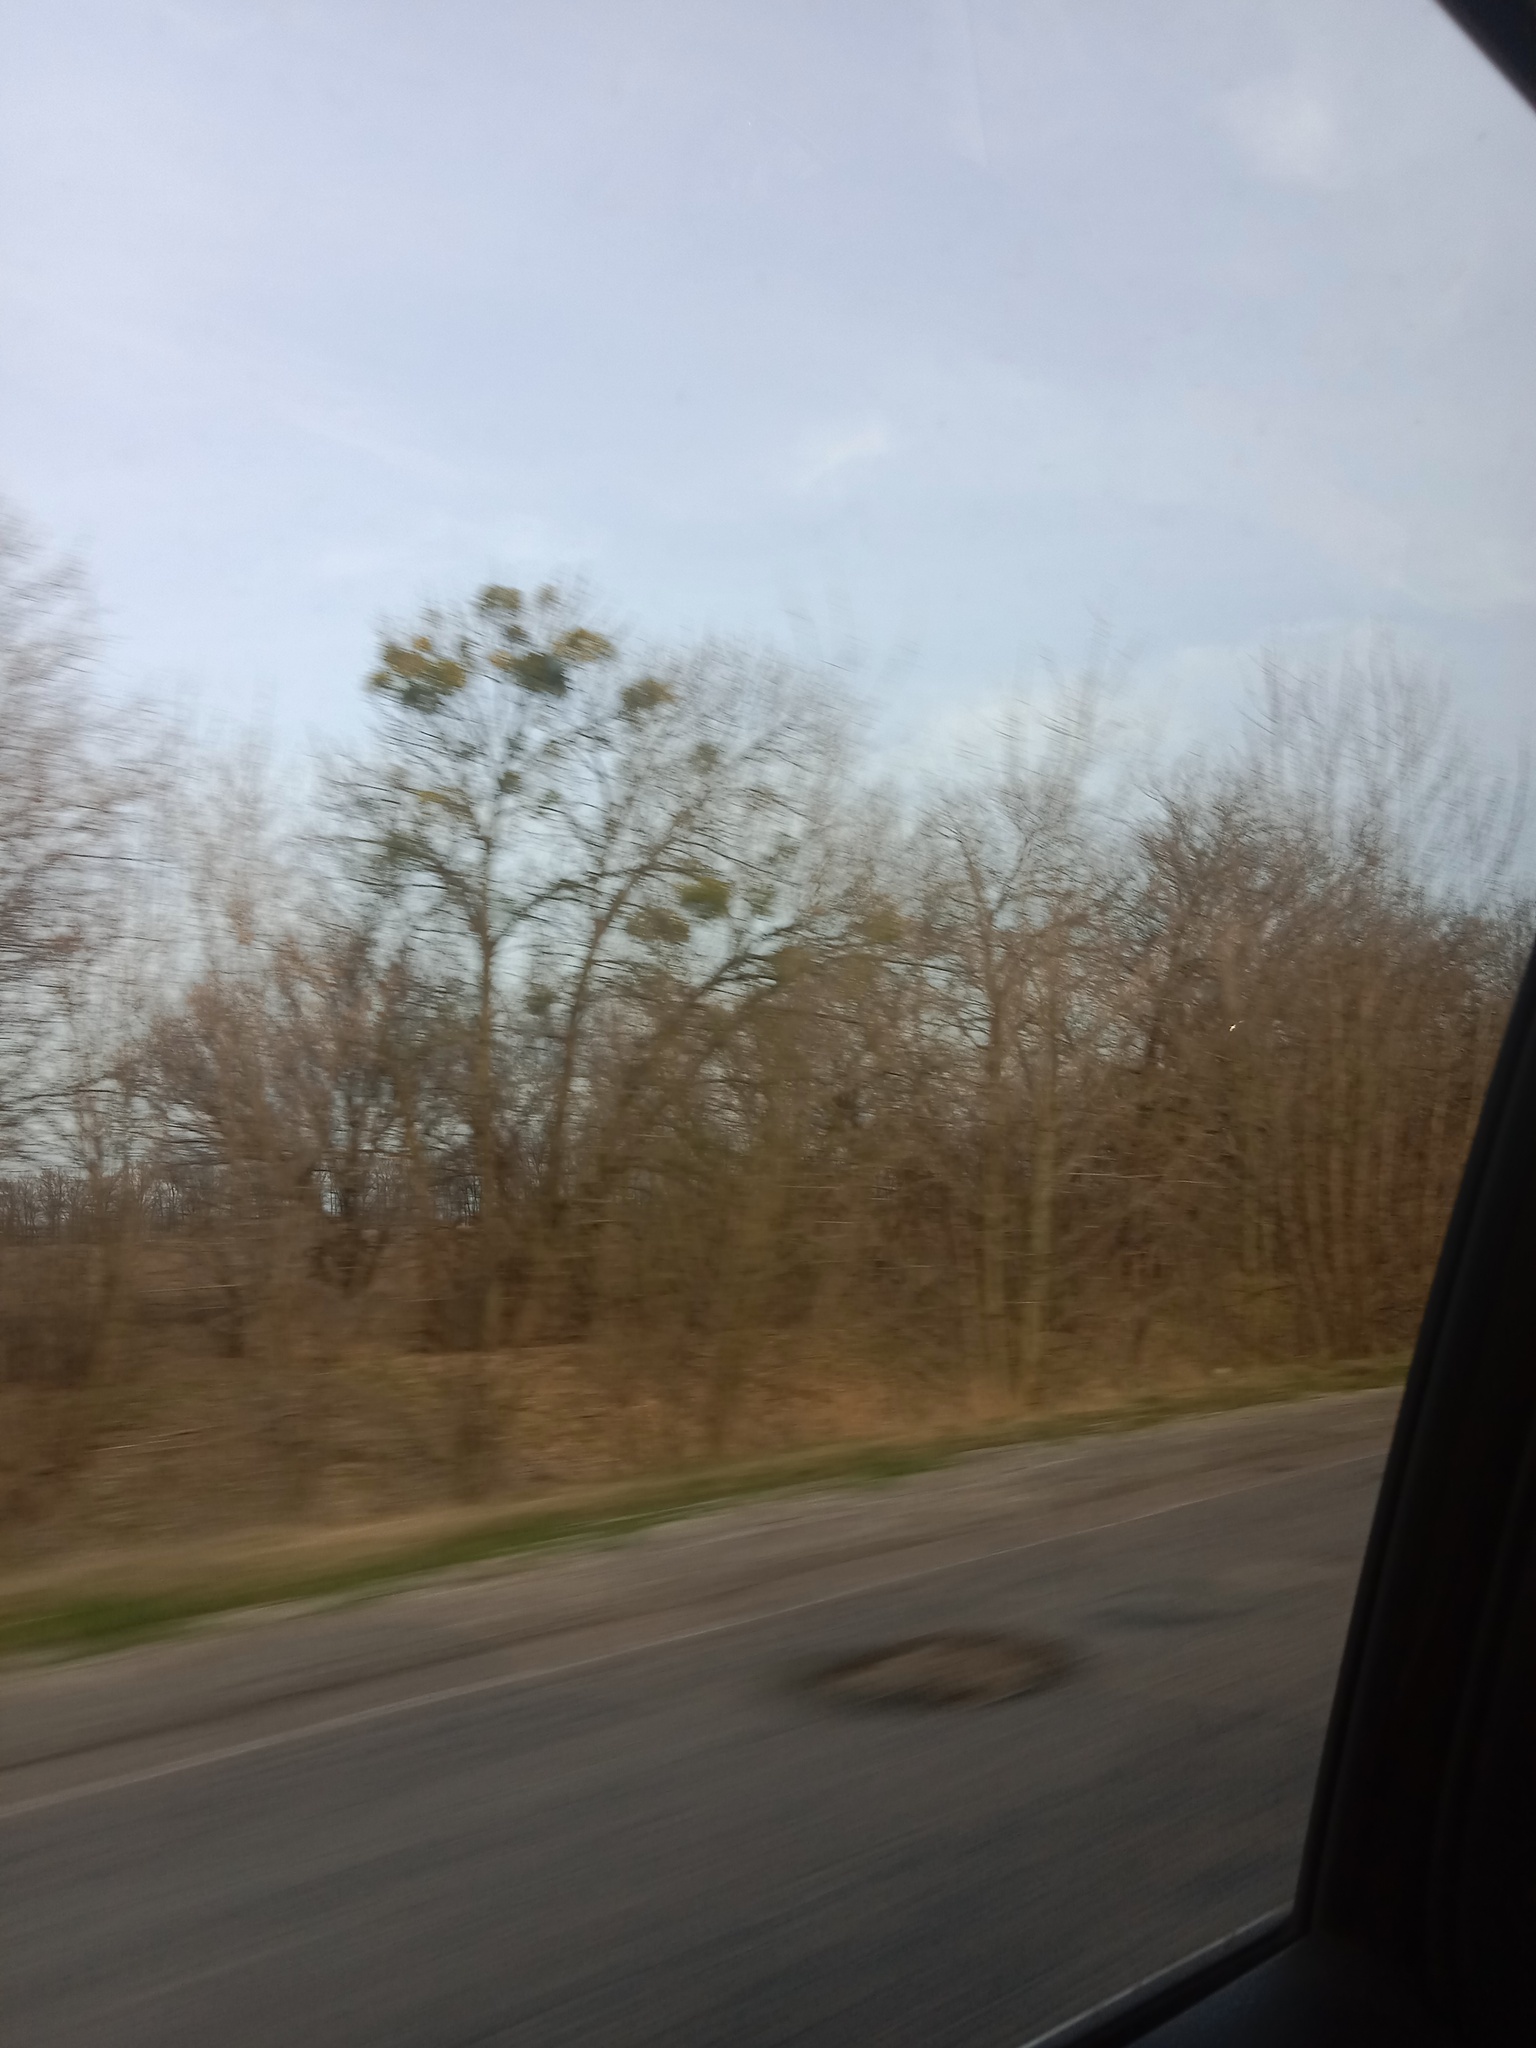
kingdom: Plantae
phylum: Tracheophyta
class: Magnoliopsida
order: Santalales
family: Viscaceae
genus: Viscum
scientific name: Viscum album
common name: Mistletoe
